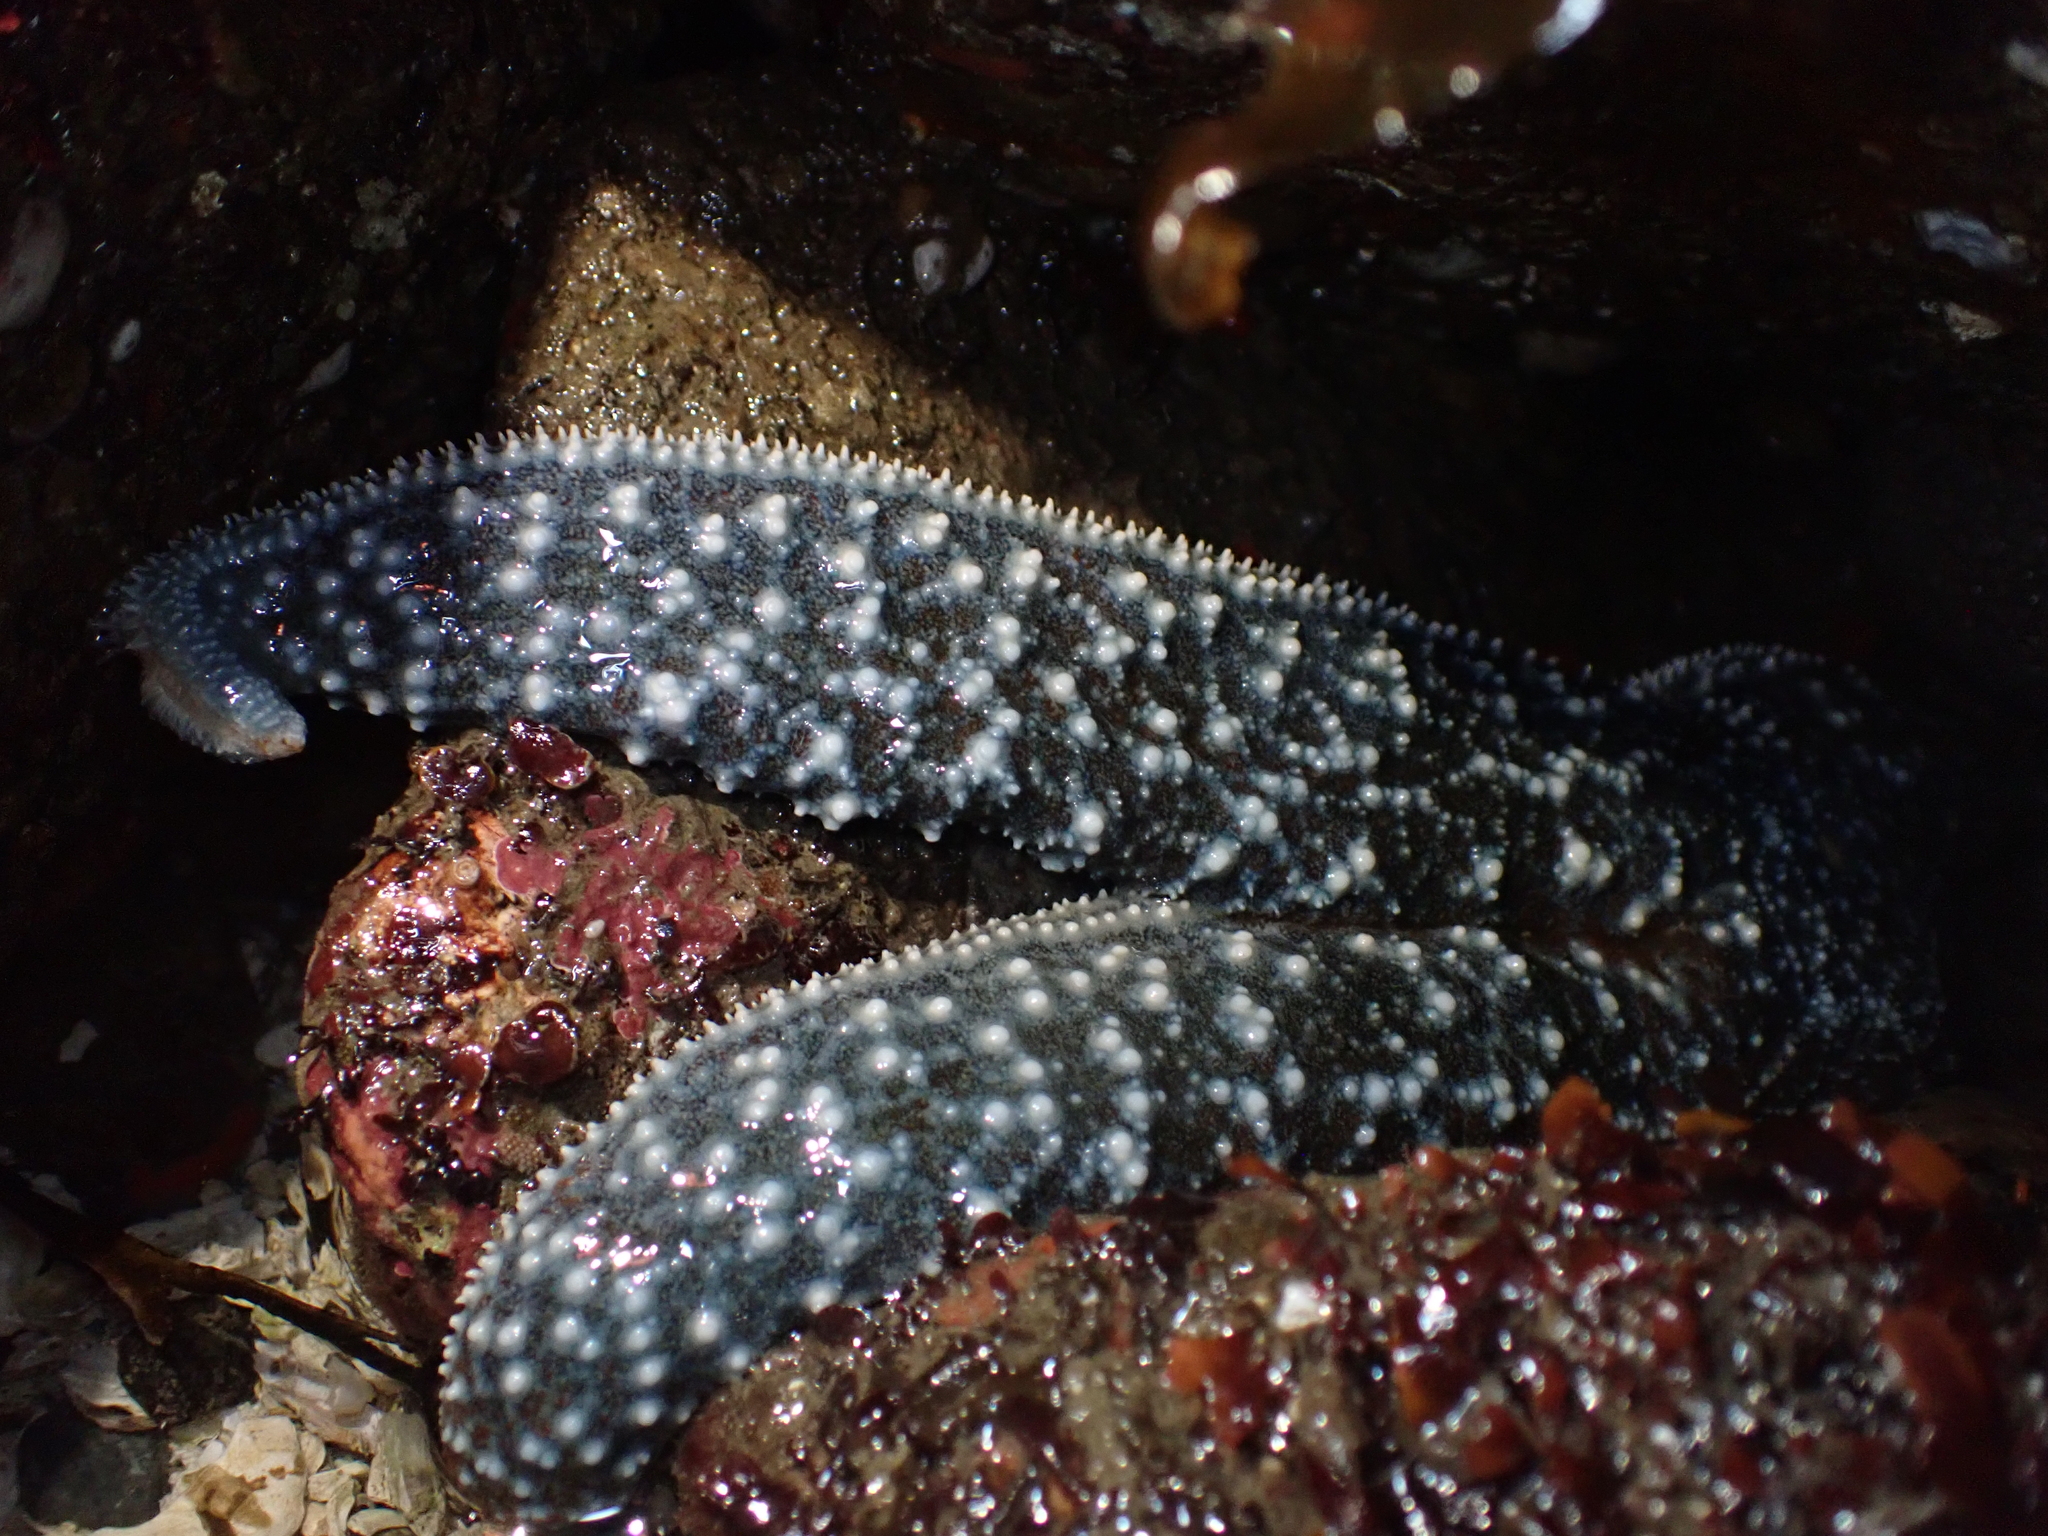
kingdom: Animalia
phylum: Echinodermata
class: Asteroidea
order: Forcipulatida
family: Asteriidae
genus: Evasterias
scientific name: Evasterias troschelii
